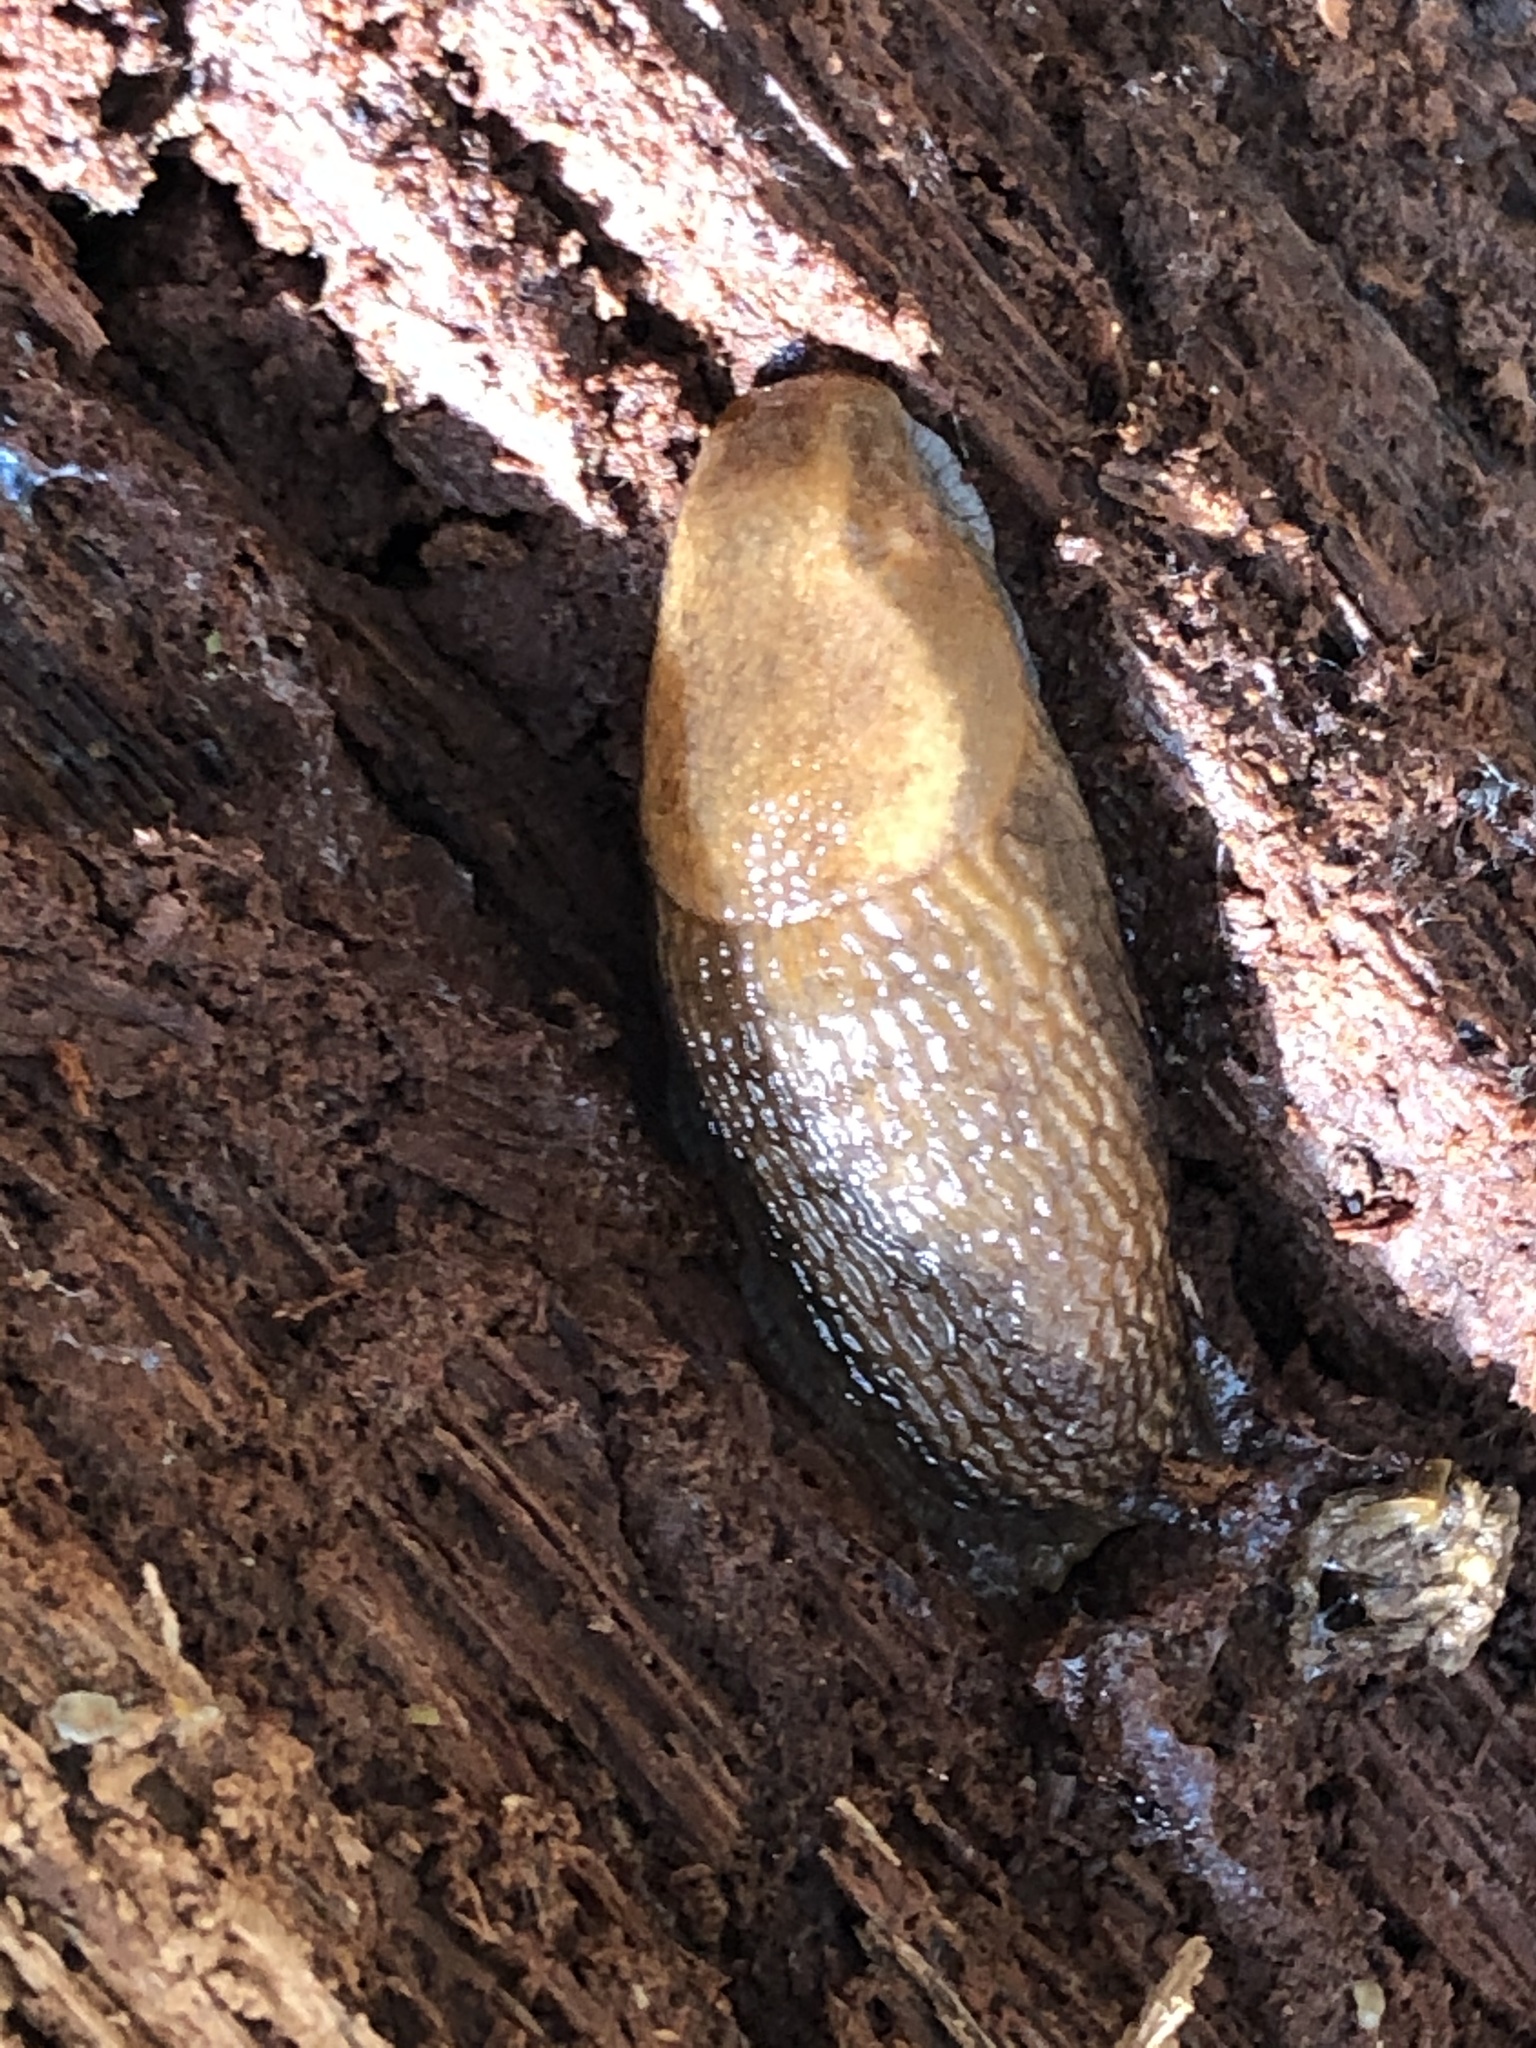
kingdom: Animalia
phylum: Mollusca
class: Gastropoda
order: Stylommatophora
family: Arionidae
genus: Arion
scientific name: Arion subfuscus
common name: Dusky arion
